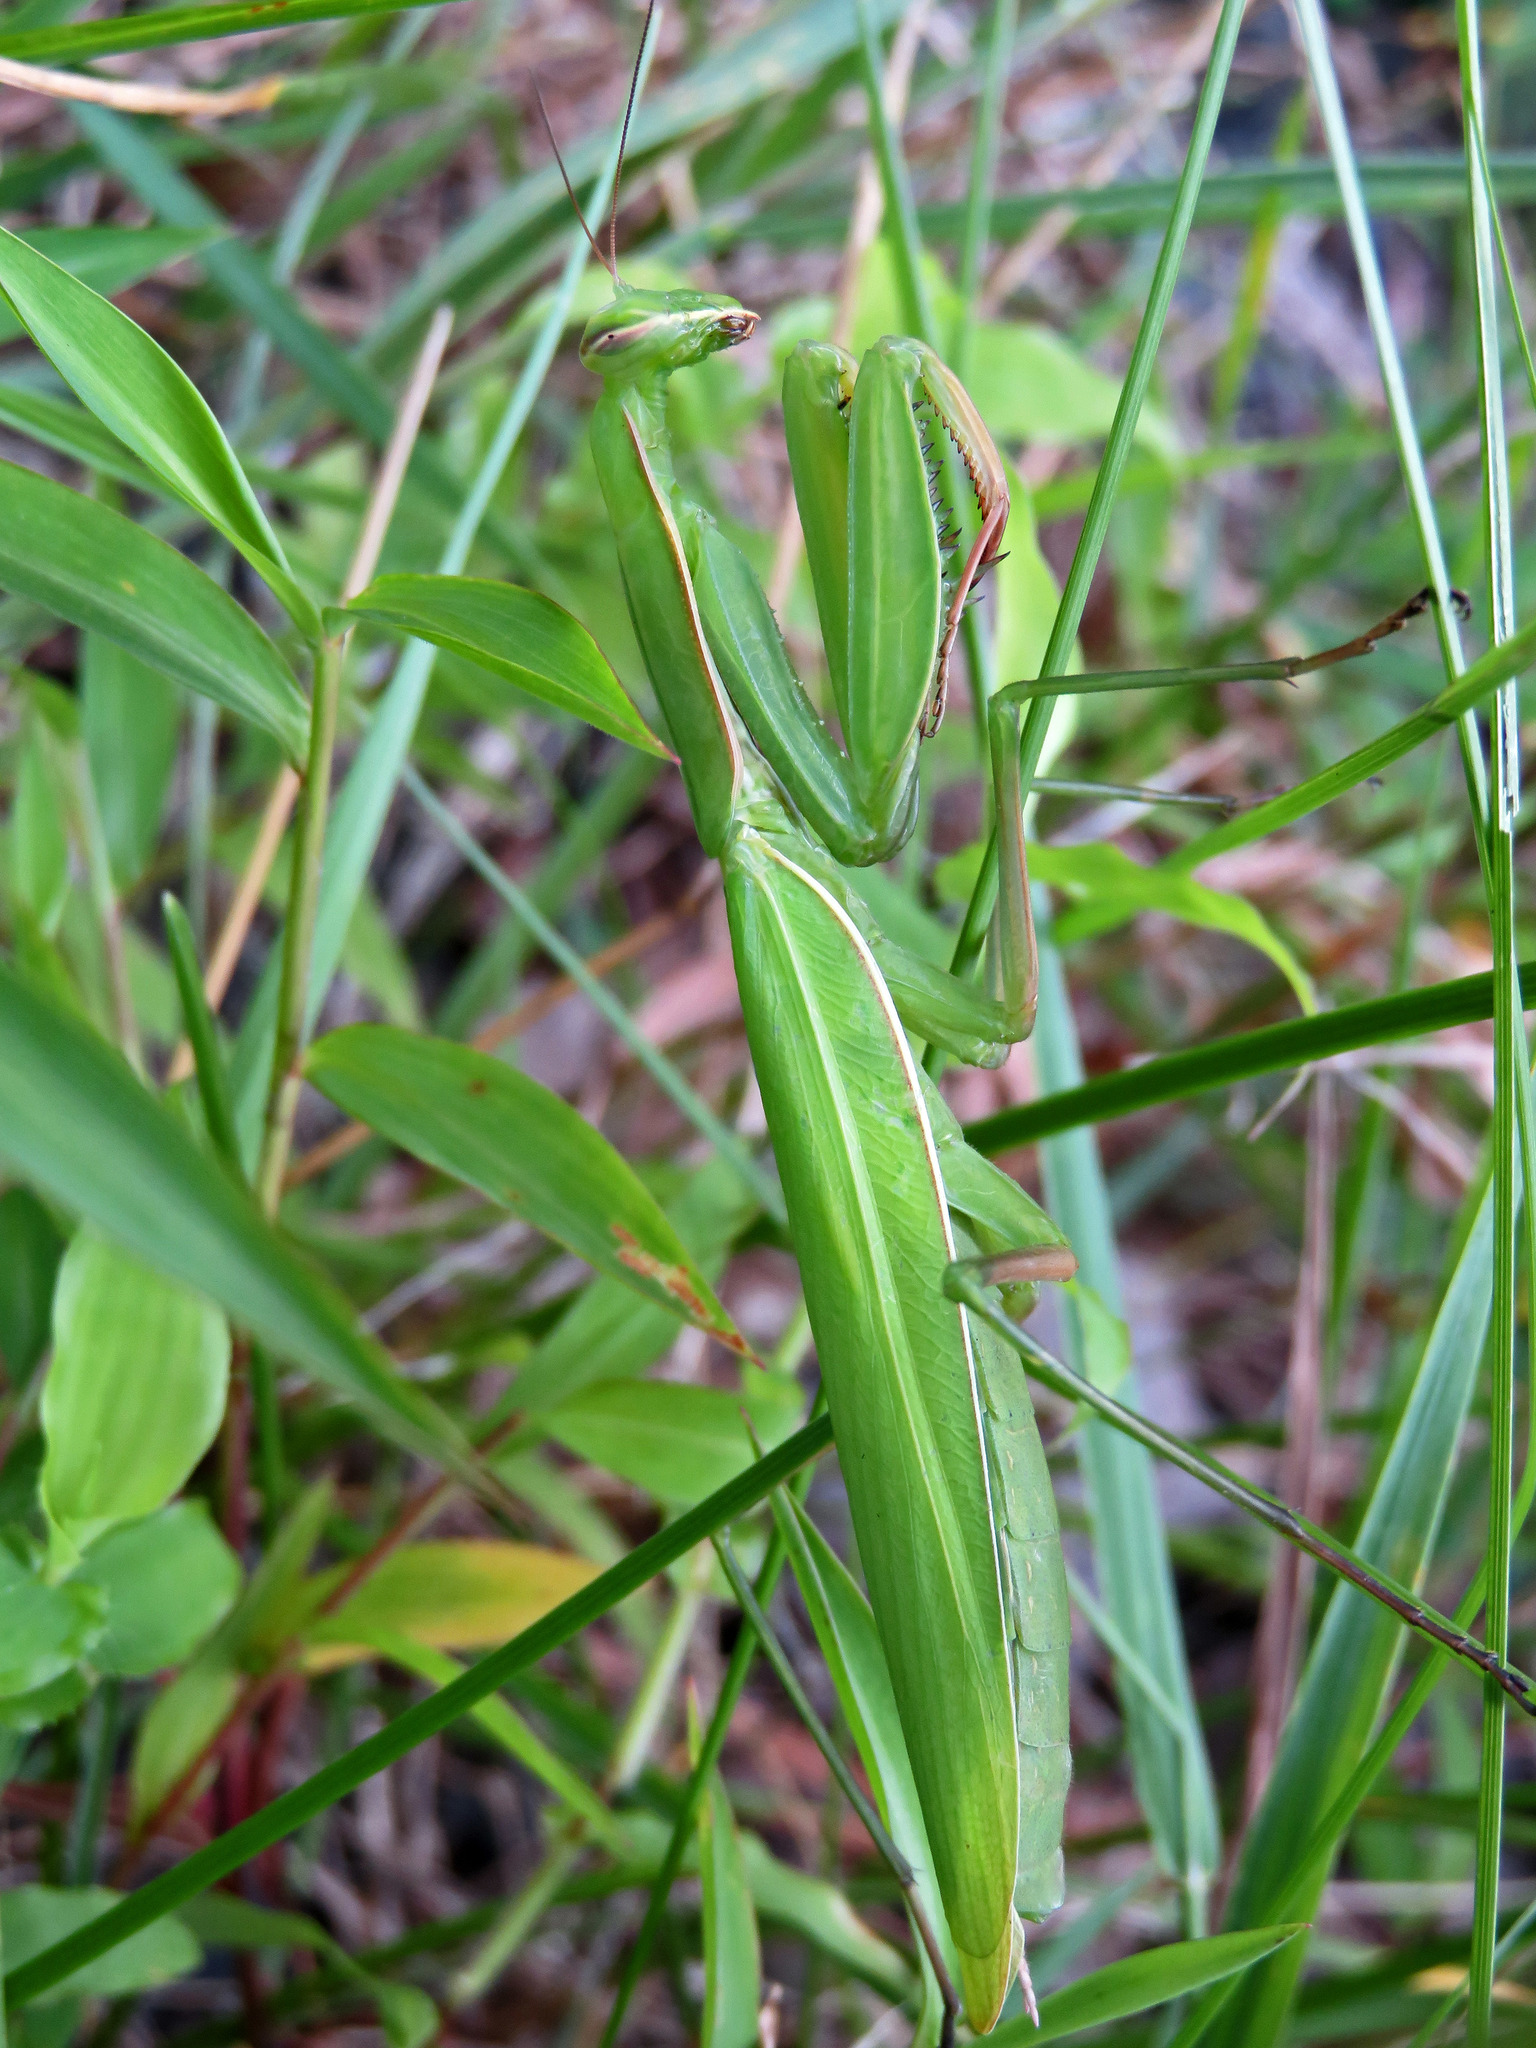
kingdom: Animalia
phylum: Arthropoda
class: Insecta
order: Mantodea
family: Mantidae
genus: Mantis
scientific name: Mantis religiosa
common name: Praying mantis
